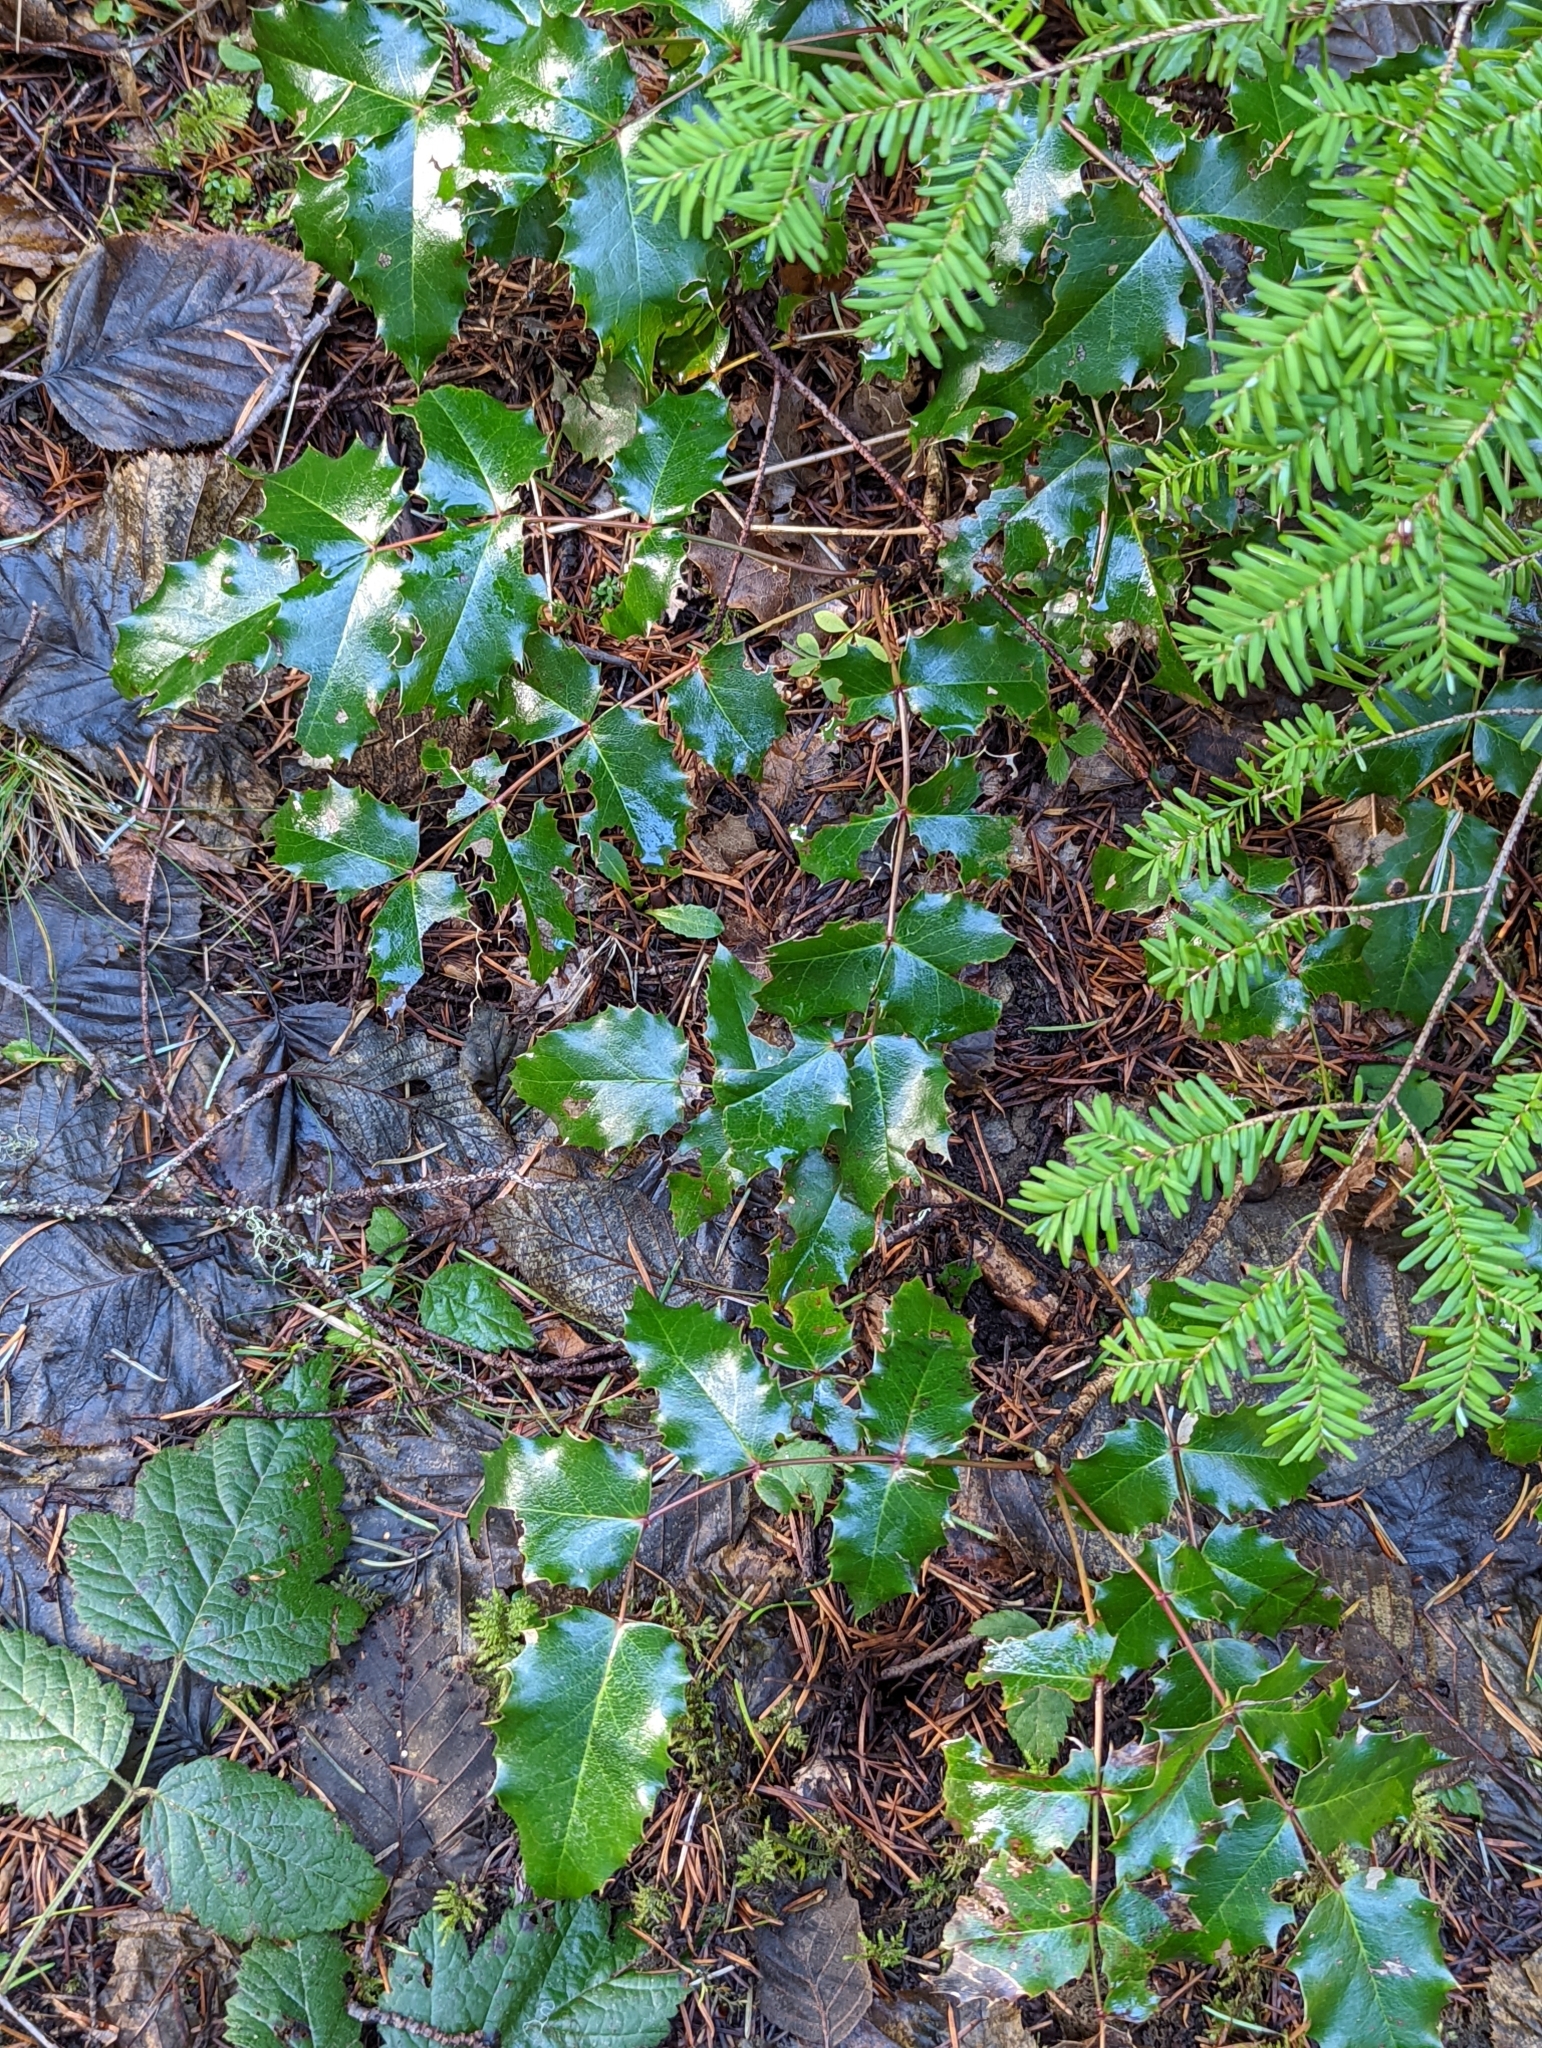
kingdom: Plantae
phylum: Tracheophyta
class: Magnoliopsida
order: Ranunculales
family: Berberidaceae
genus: Mahonia
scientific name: Mahonia aquifolium
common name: Oregon-grape
